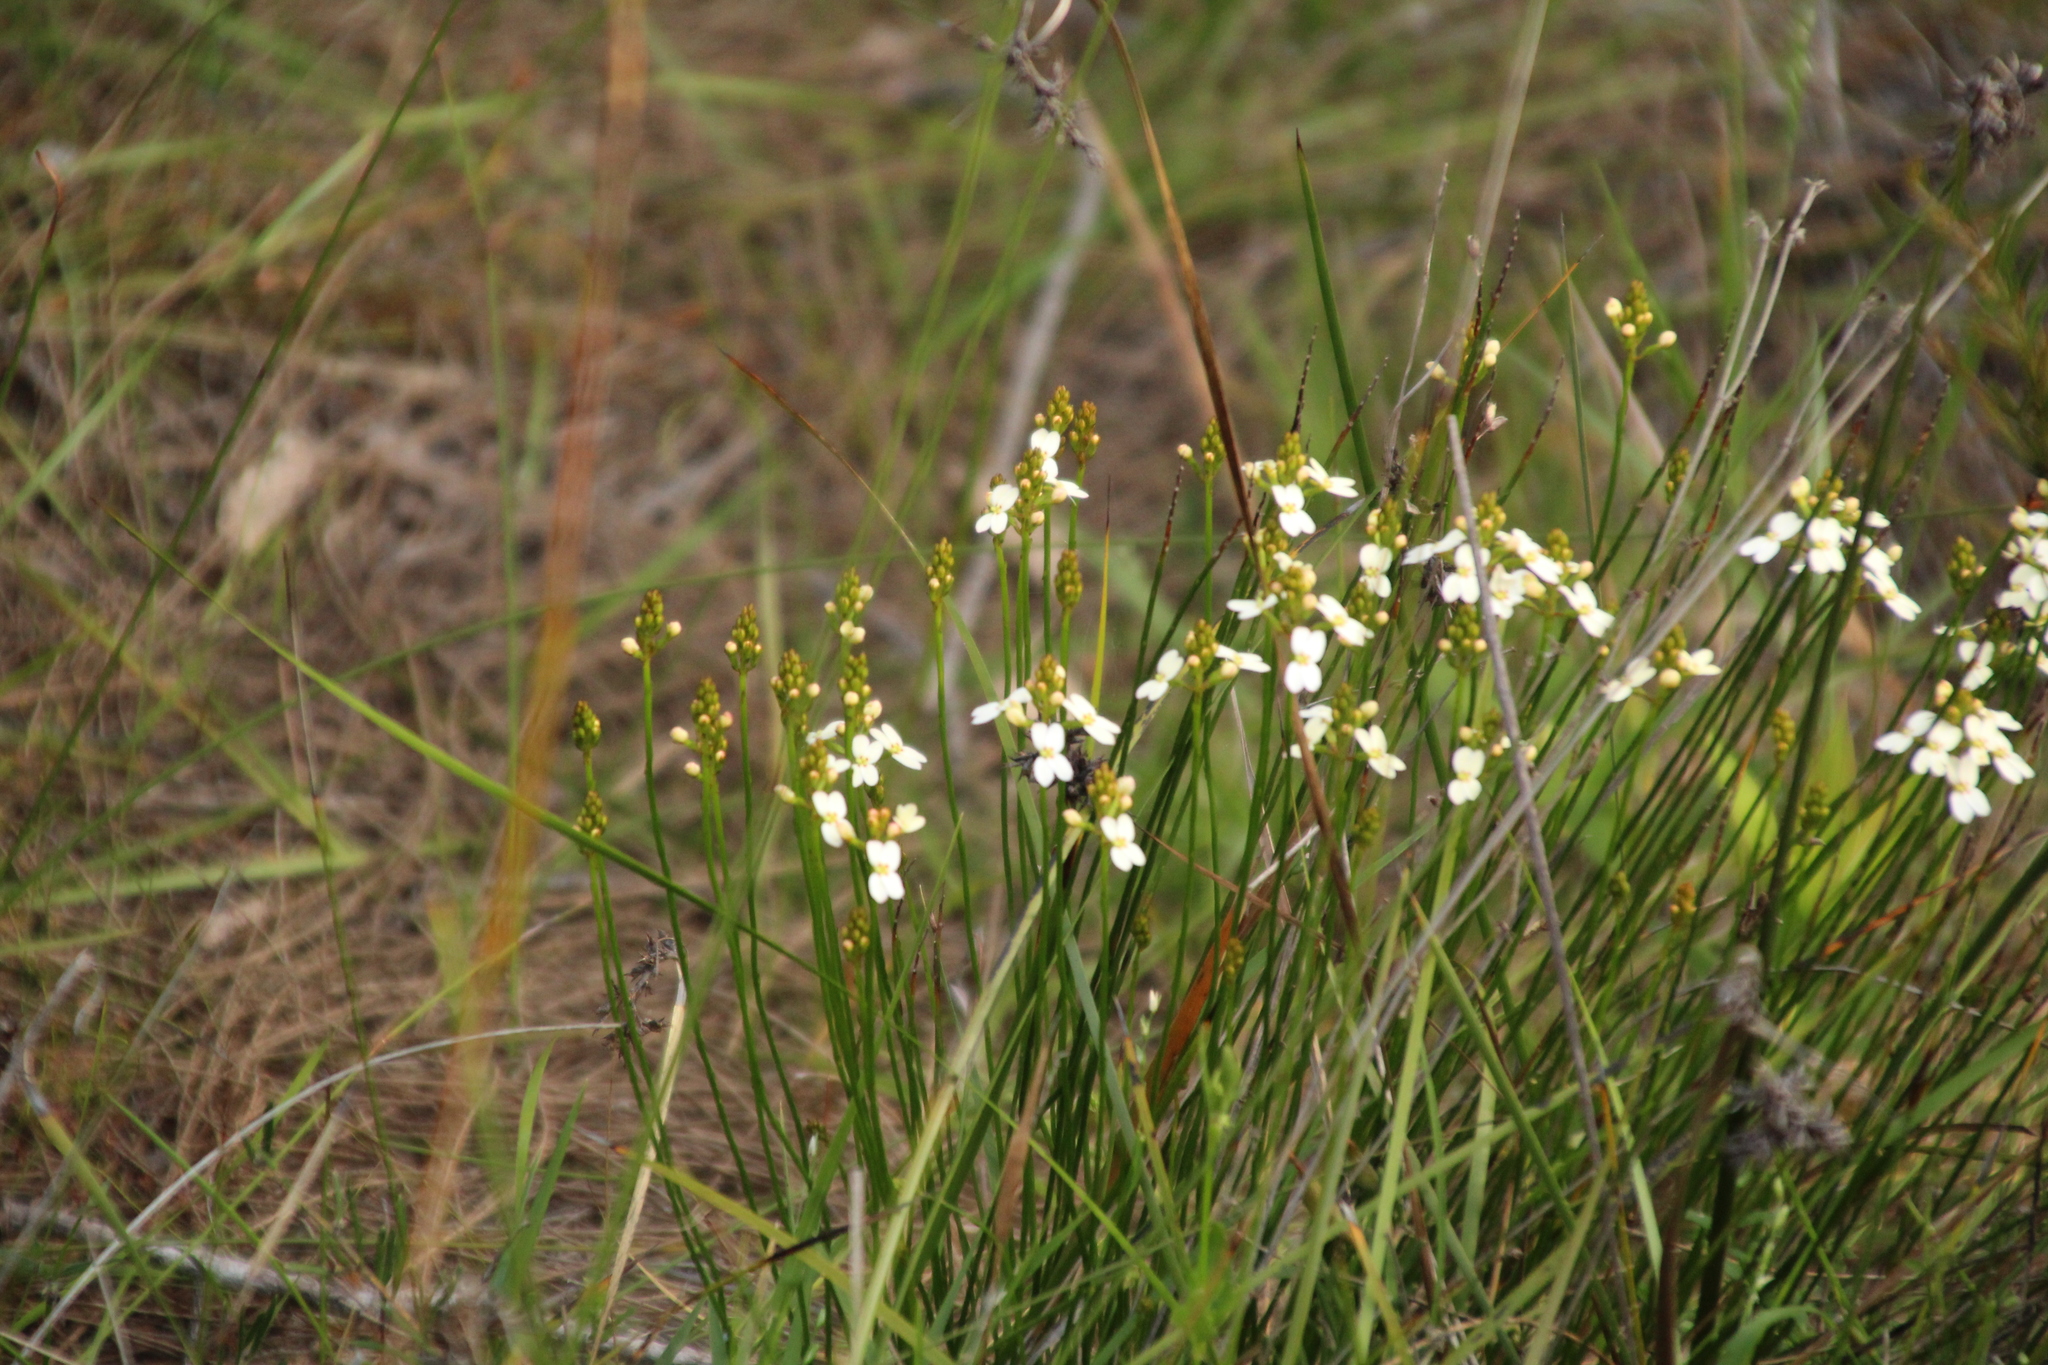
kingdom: Plantae
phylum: Tracheophyta
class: Magnoliopsida
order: Asterales
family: Stylidiaceae
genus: Stylidium
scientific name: Stylidium junceum
